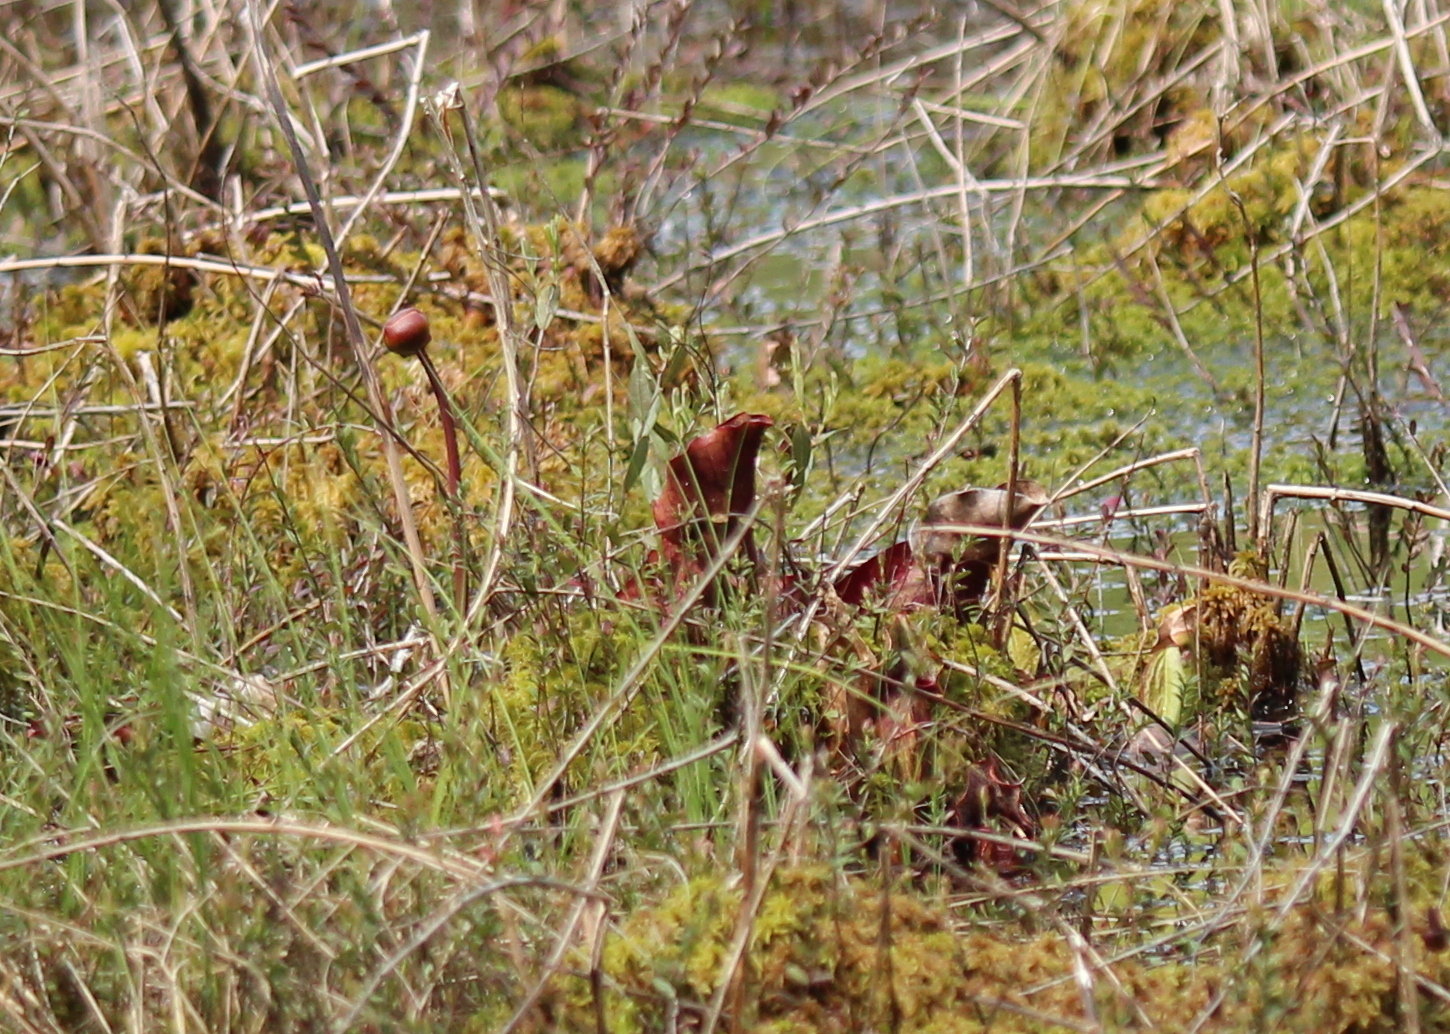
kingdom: Plantae
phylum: Tracheophyta
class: Magnoliopsida
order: Ericales
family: Sarraceniaceae
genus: Sarracenia
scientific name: Sarracenia purpurea
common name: Pitcherplant
